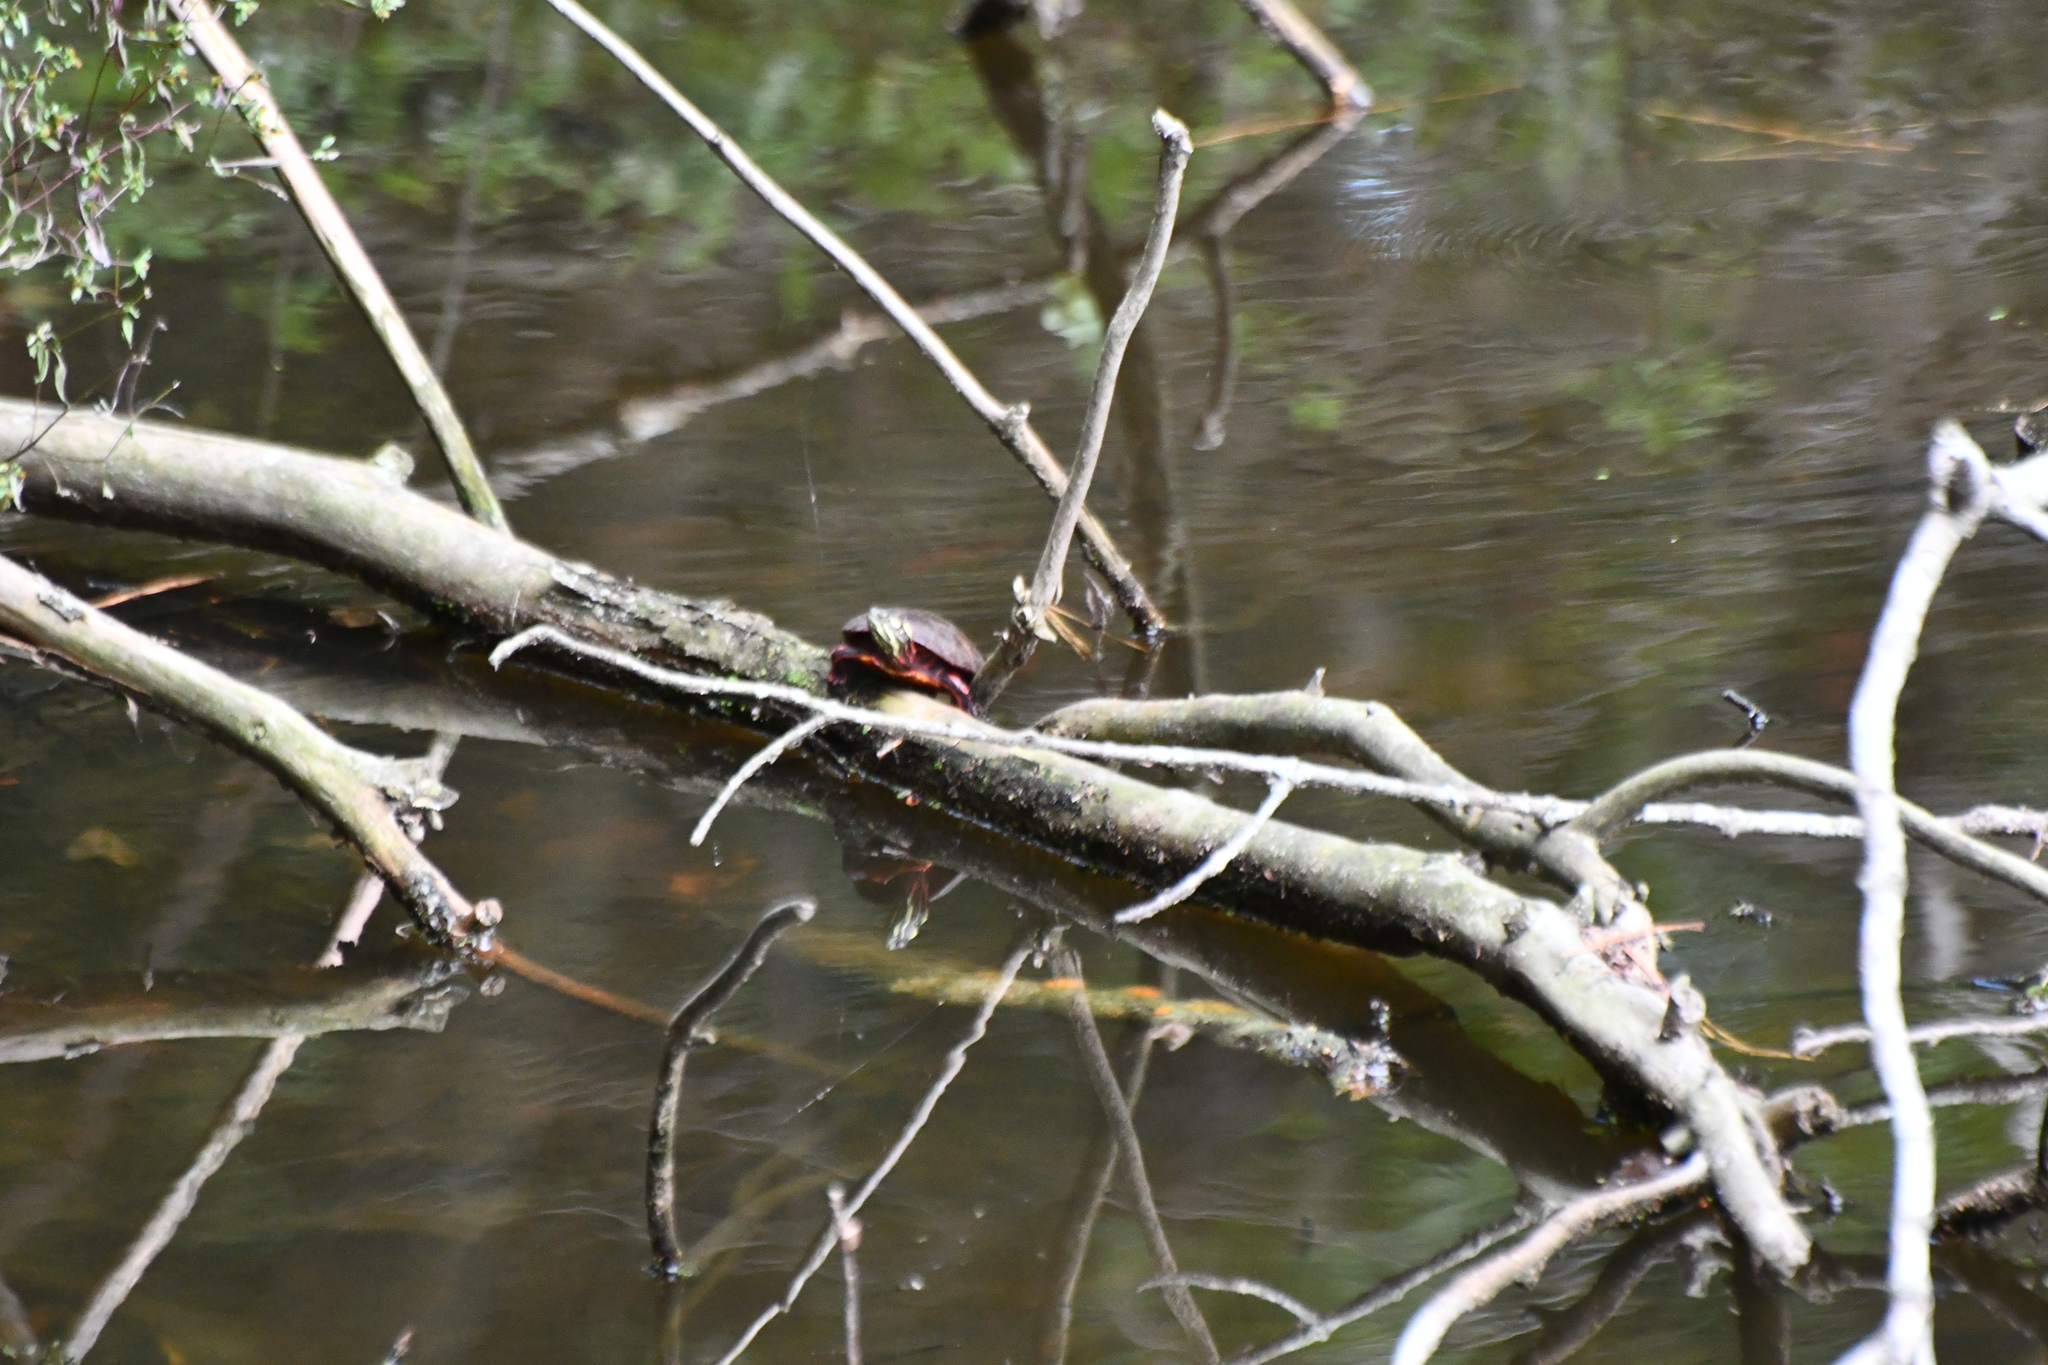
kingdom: Animalia
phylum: Chordata
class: Testudines
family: Emydidae
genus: Chrysemys
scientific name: Chrysemys picta
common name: Painted turtle
